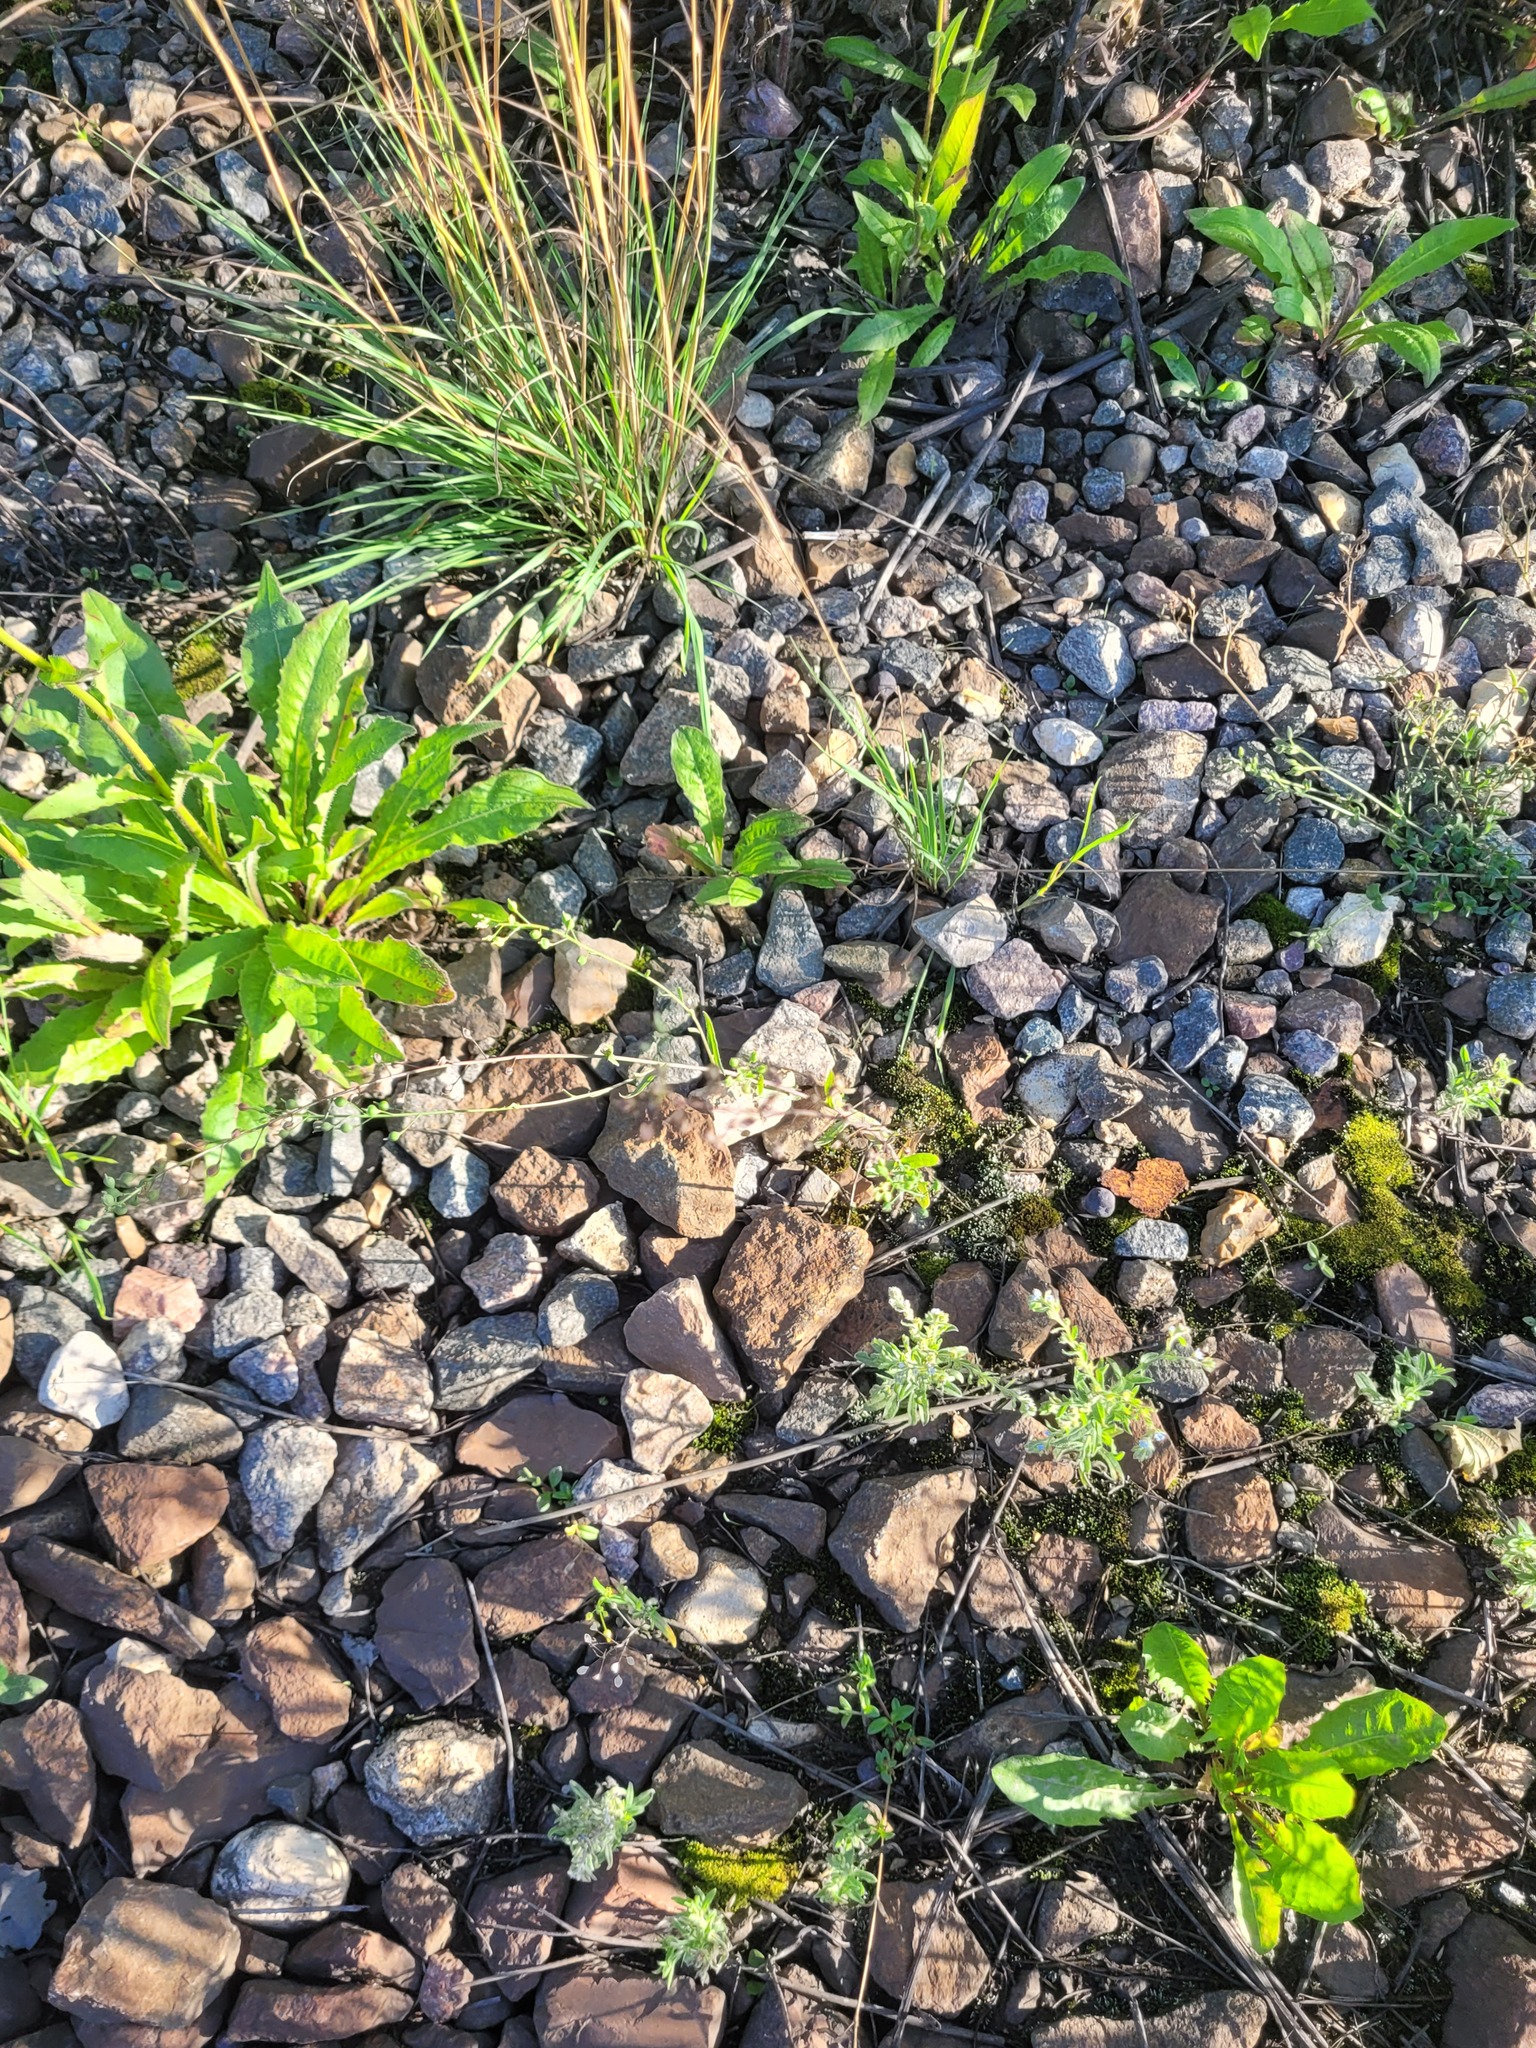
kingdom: Plantae
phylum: Tracheophyta
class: Magnoliopsida
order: Brassicales
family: Brassicaceae
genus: Camelina
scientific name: Camelina microcarpa
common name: Lesser gold-of-pleasure
